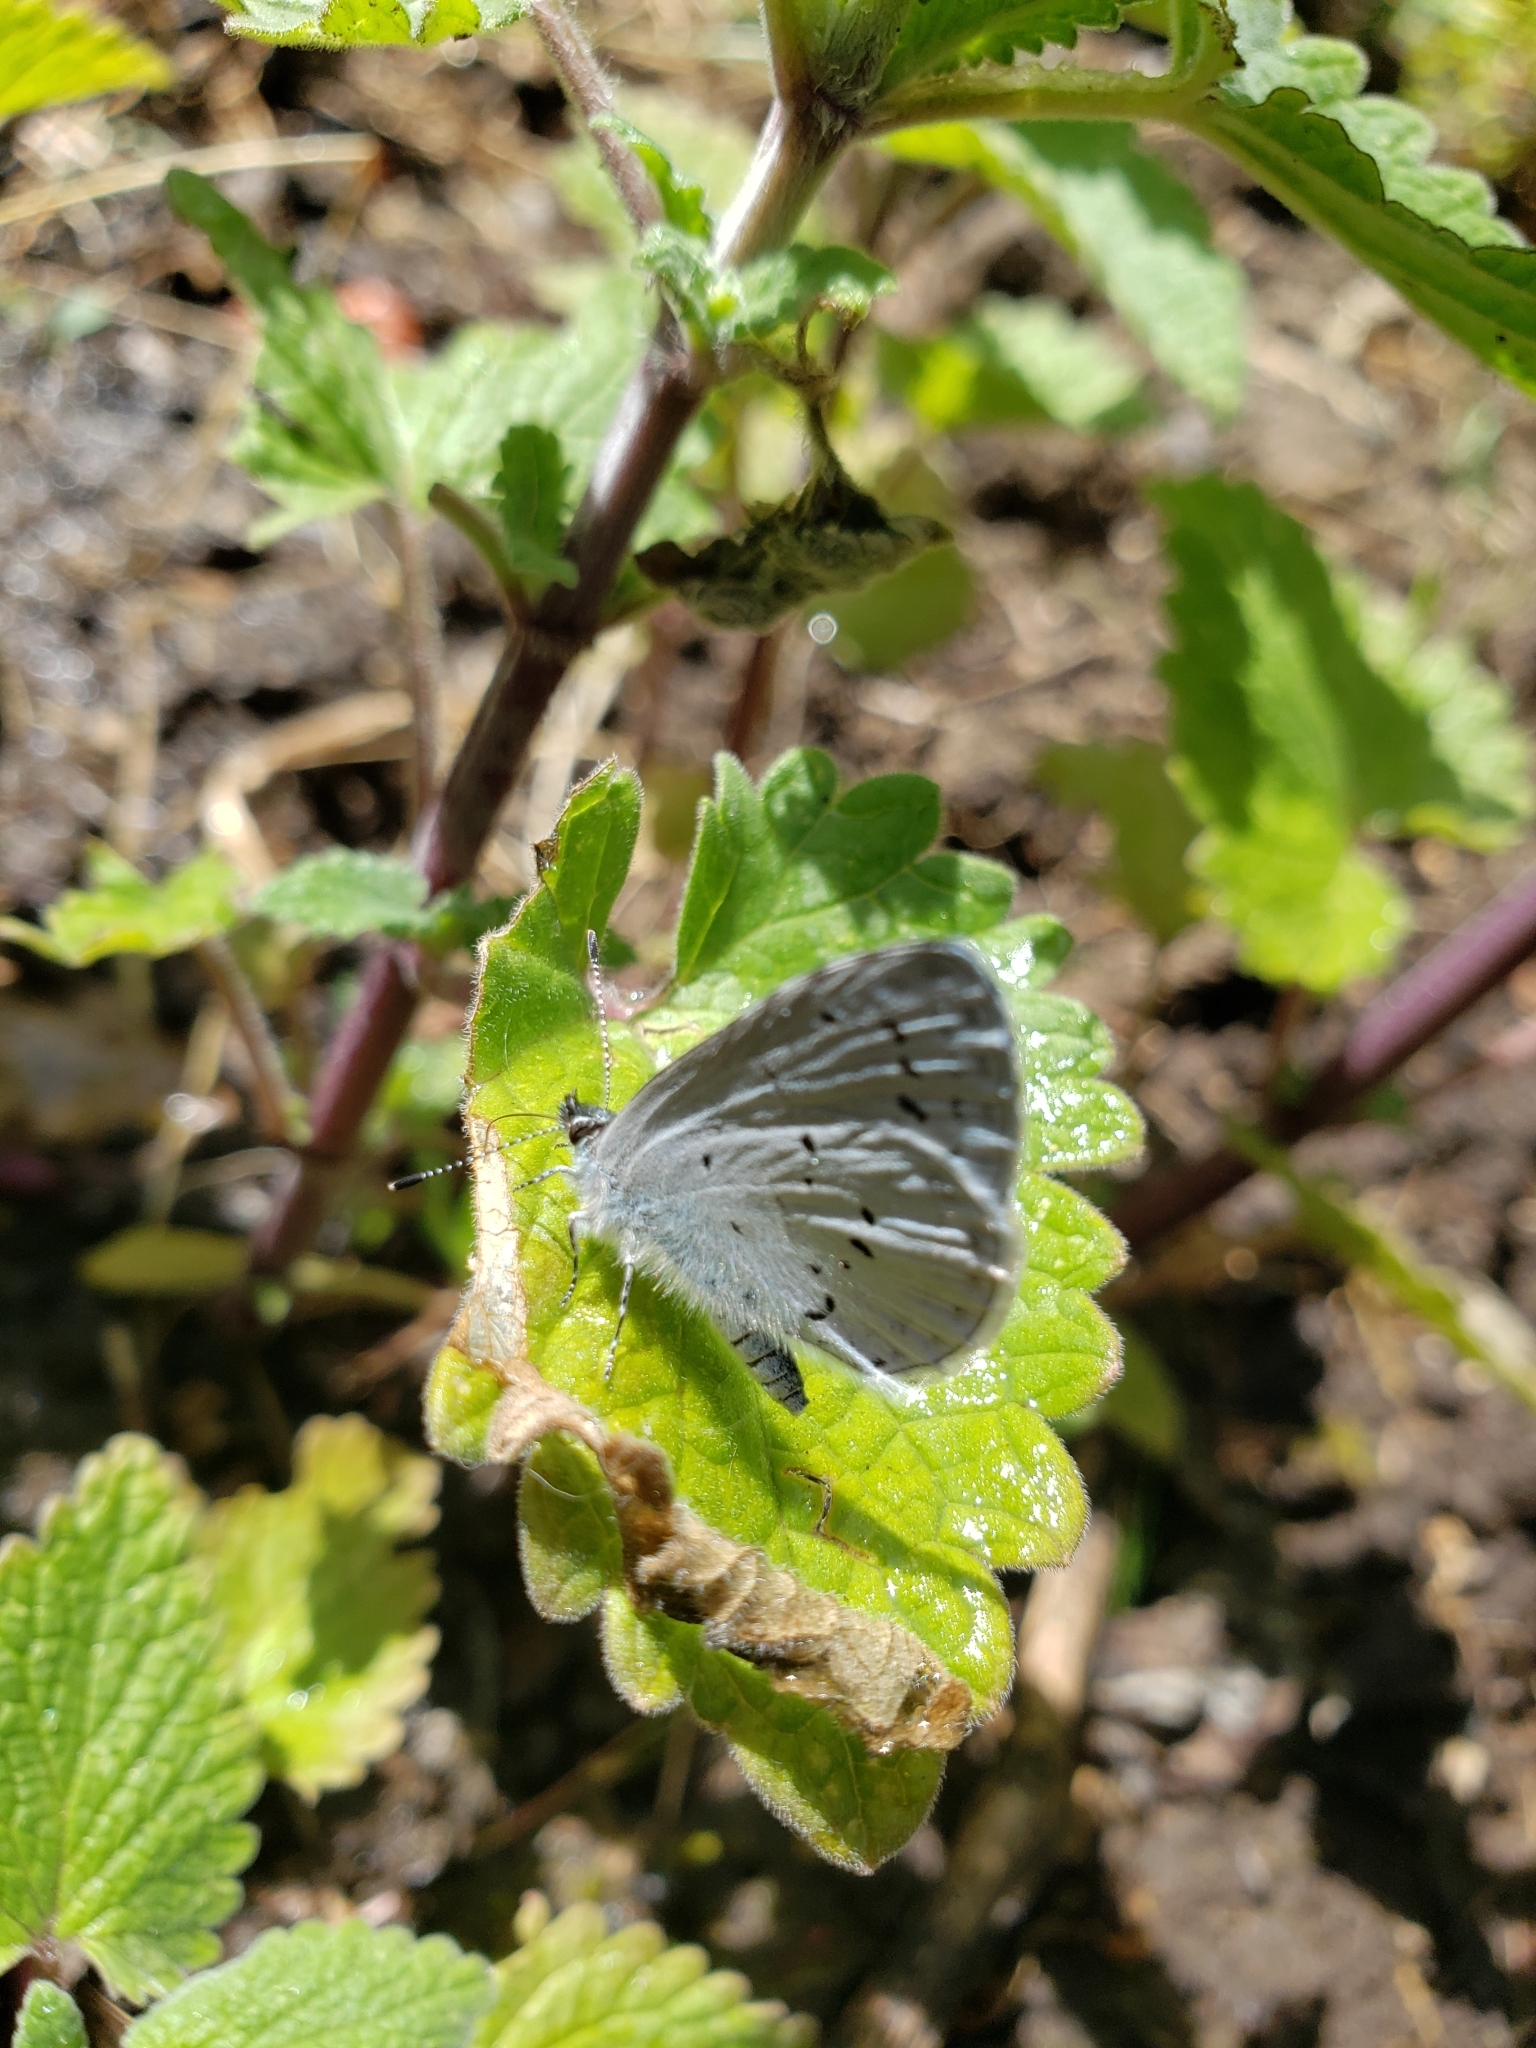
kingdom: Animalia
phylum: Arthropoda
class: Insecta
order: Lepidoptera
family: Lycaenidae
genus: Celastrina
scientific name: Celastrina ladon
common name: Spring azure
